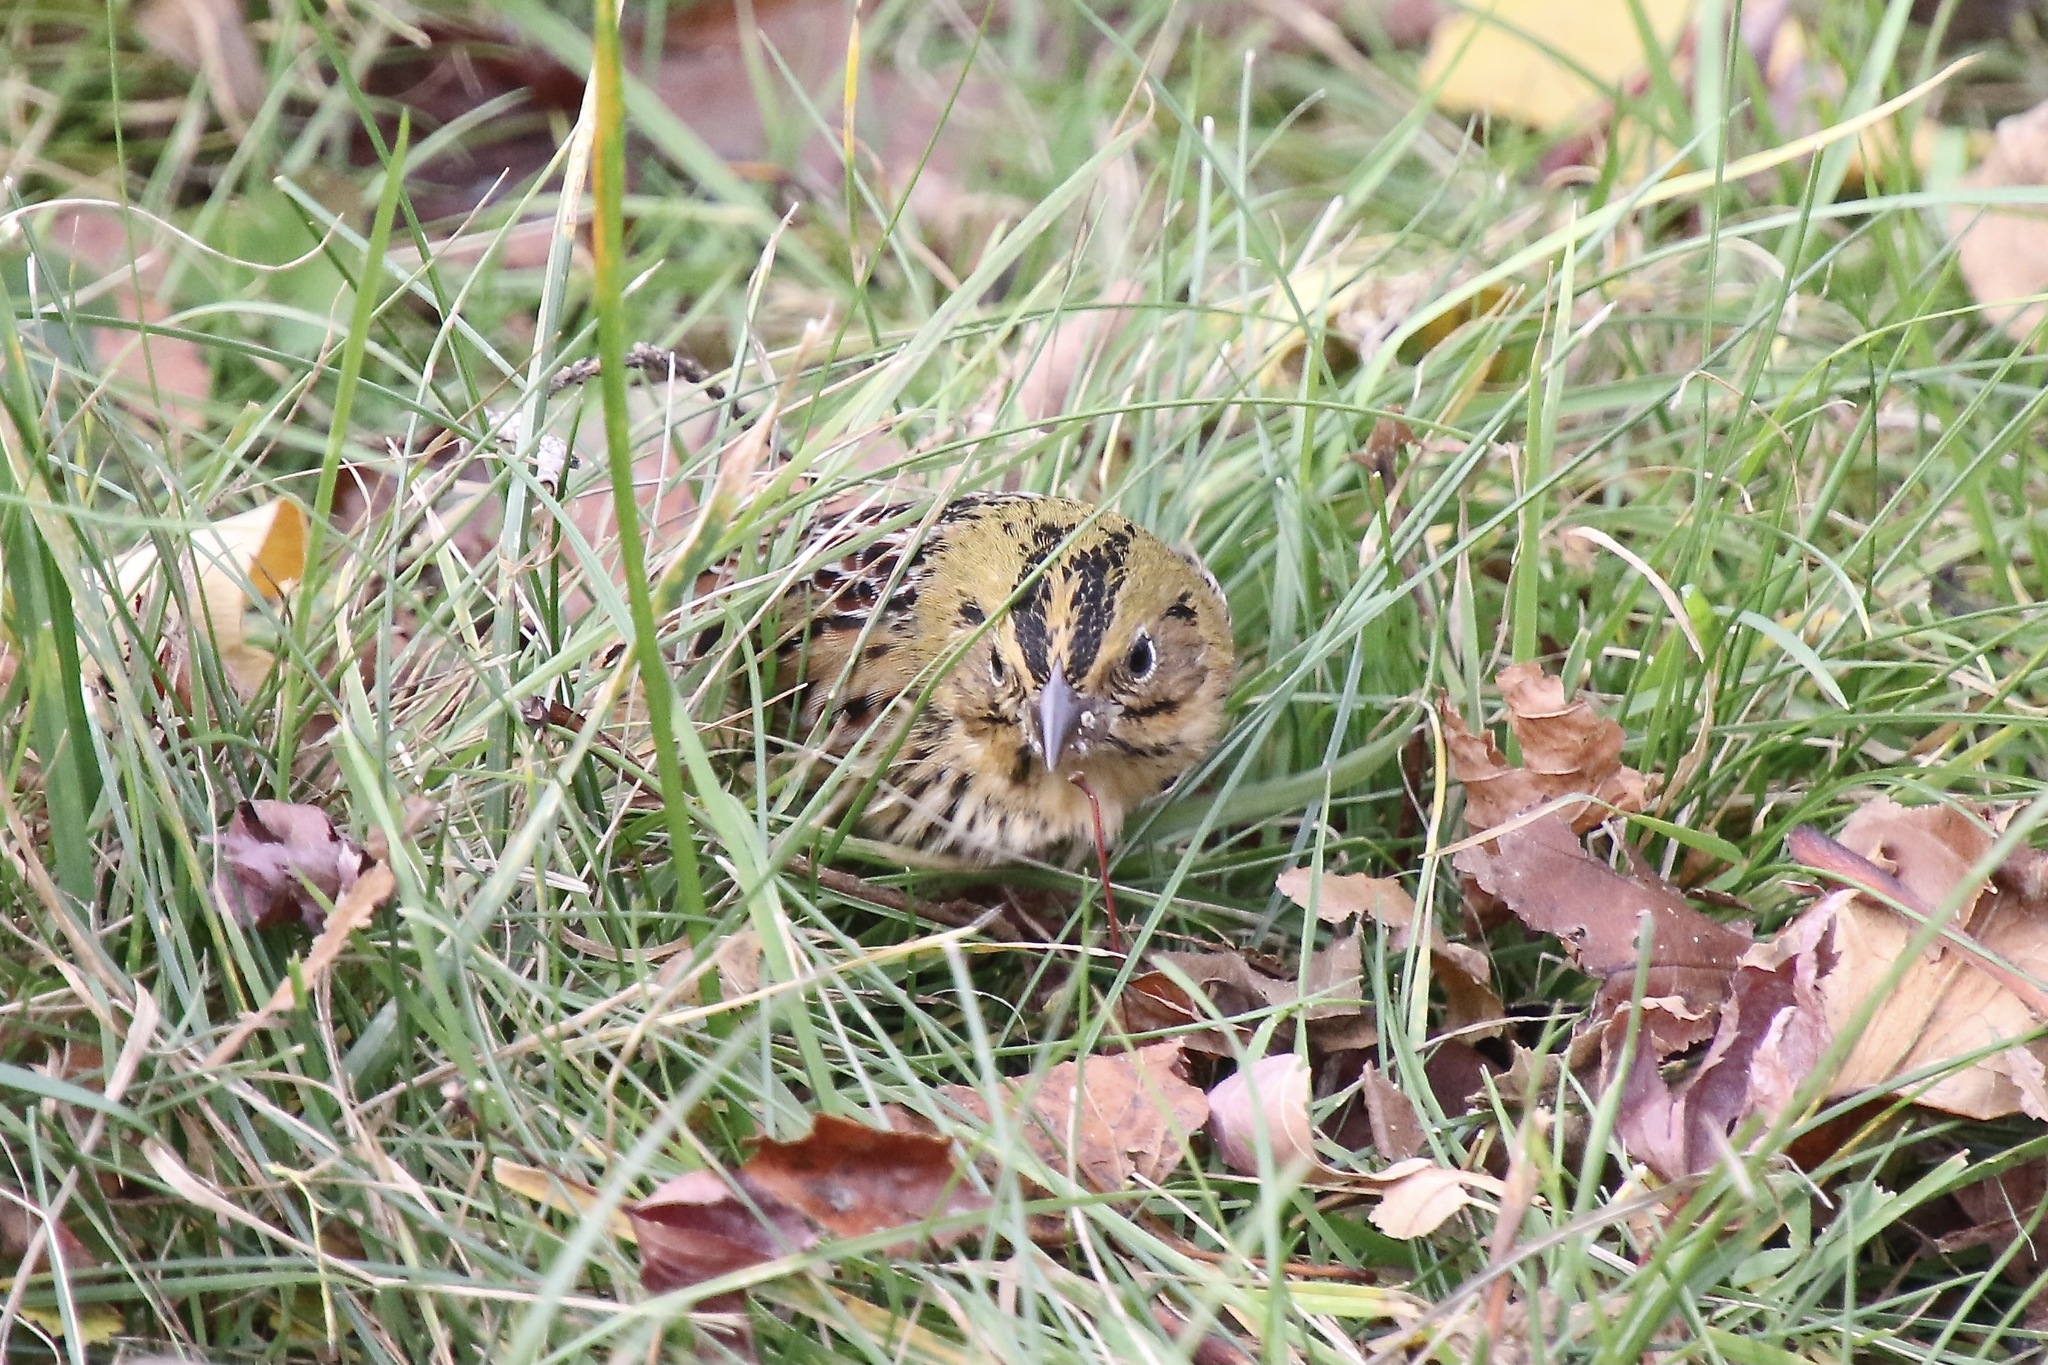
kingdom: Animalia
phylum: Chordata
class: Aves
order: Passeriformes
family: Passerellidae
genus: Centronyx
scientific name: Centronyx henslowii
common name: Henslow's sparrow
